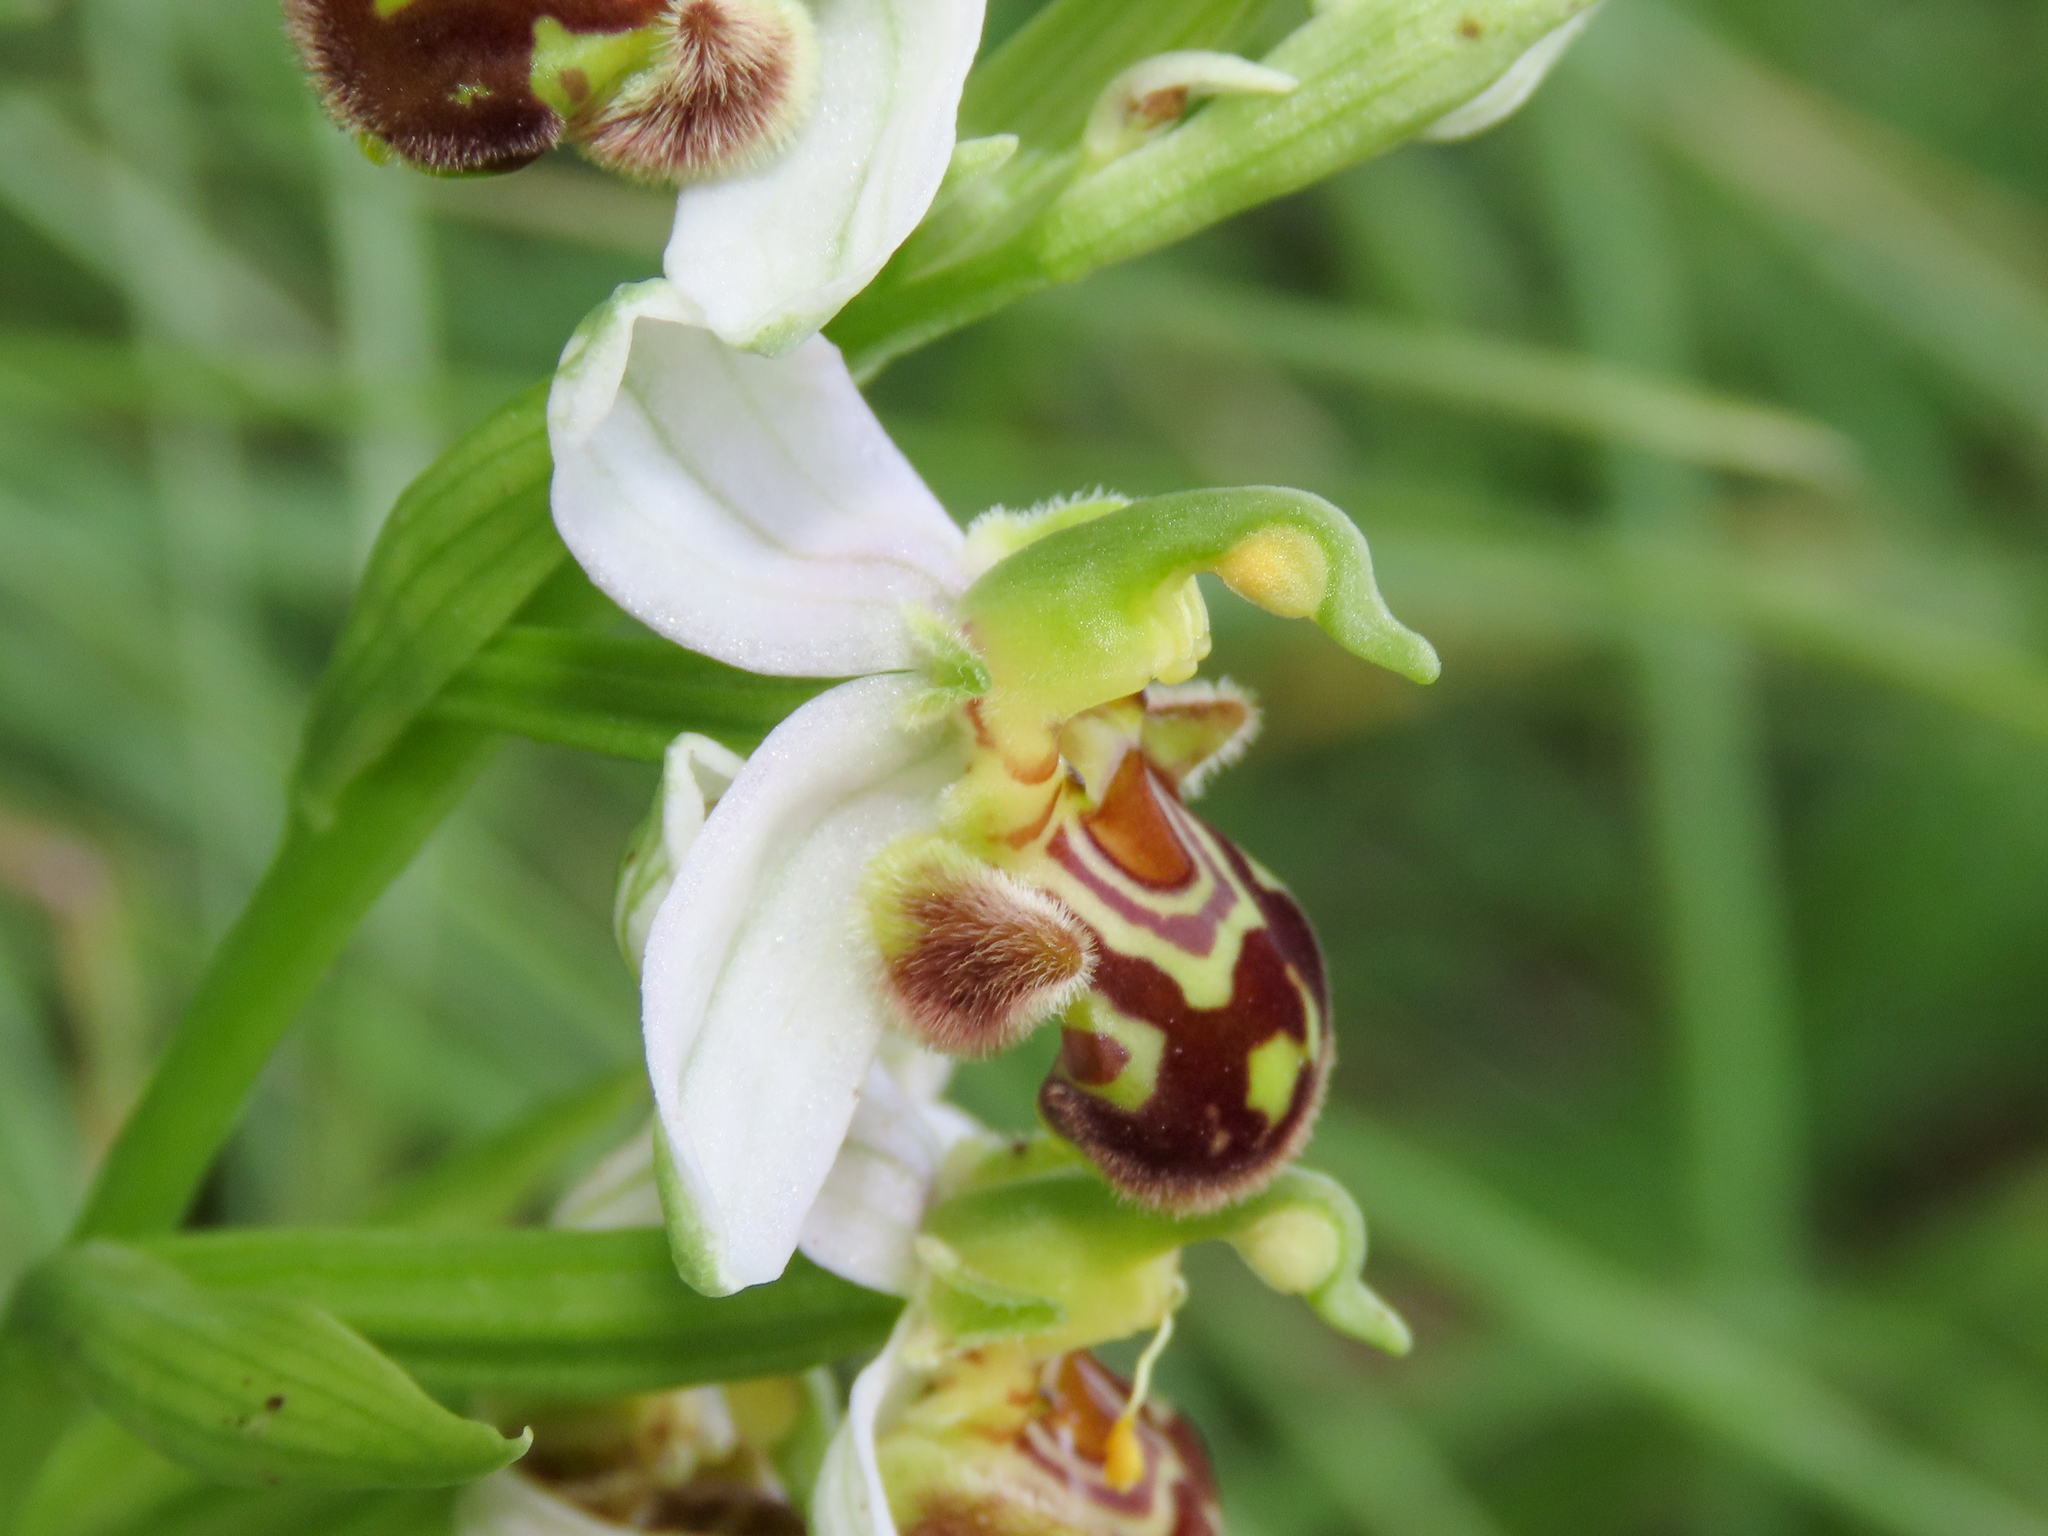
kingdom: Plantae
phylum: Tracheophyta
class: Liliopsida
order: Asparagales
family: Orchidaceae
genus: Ophrys
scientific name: Ophrys apifera
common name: Bee orchid
